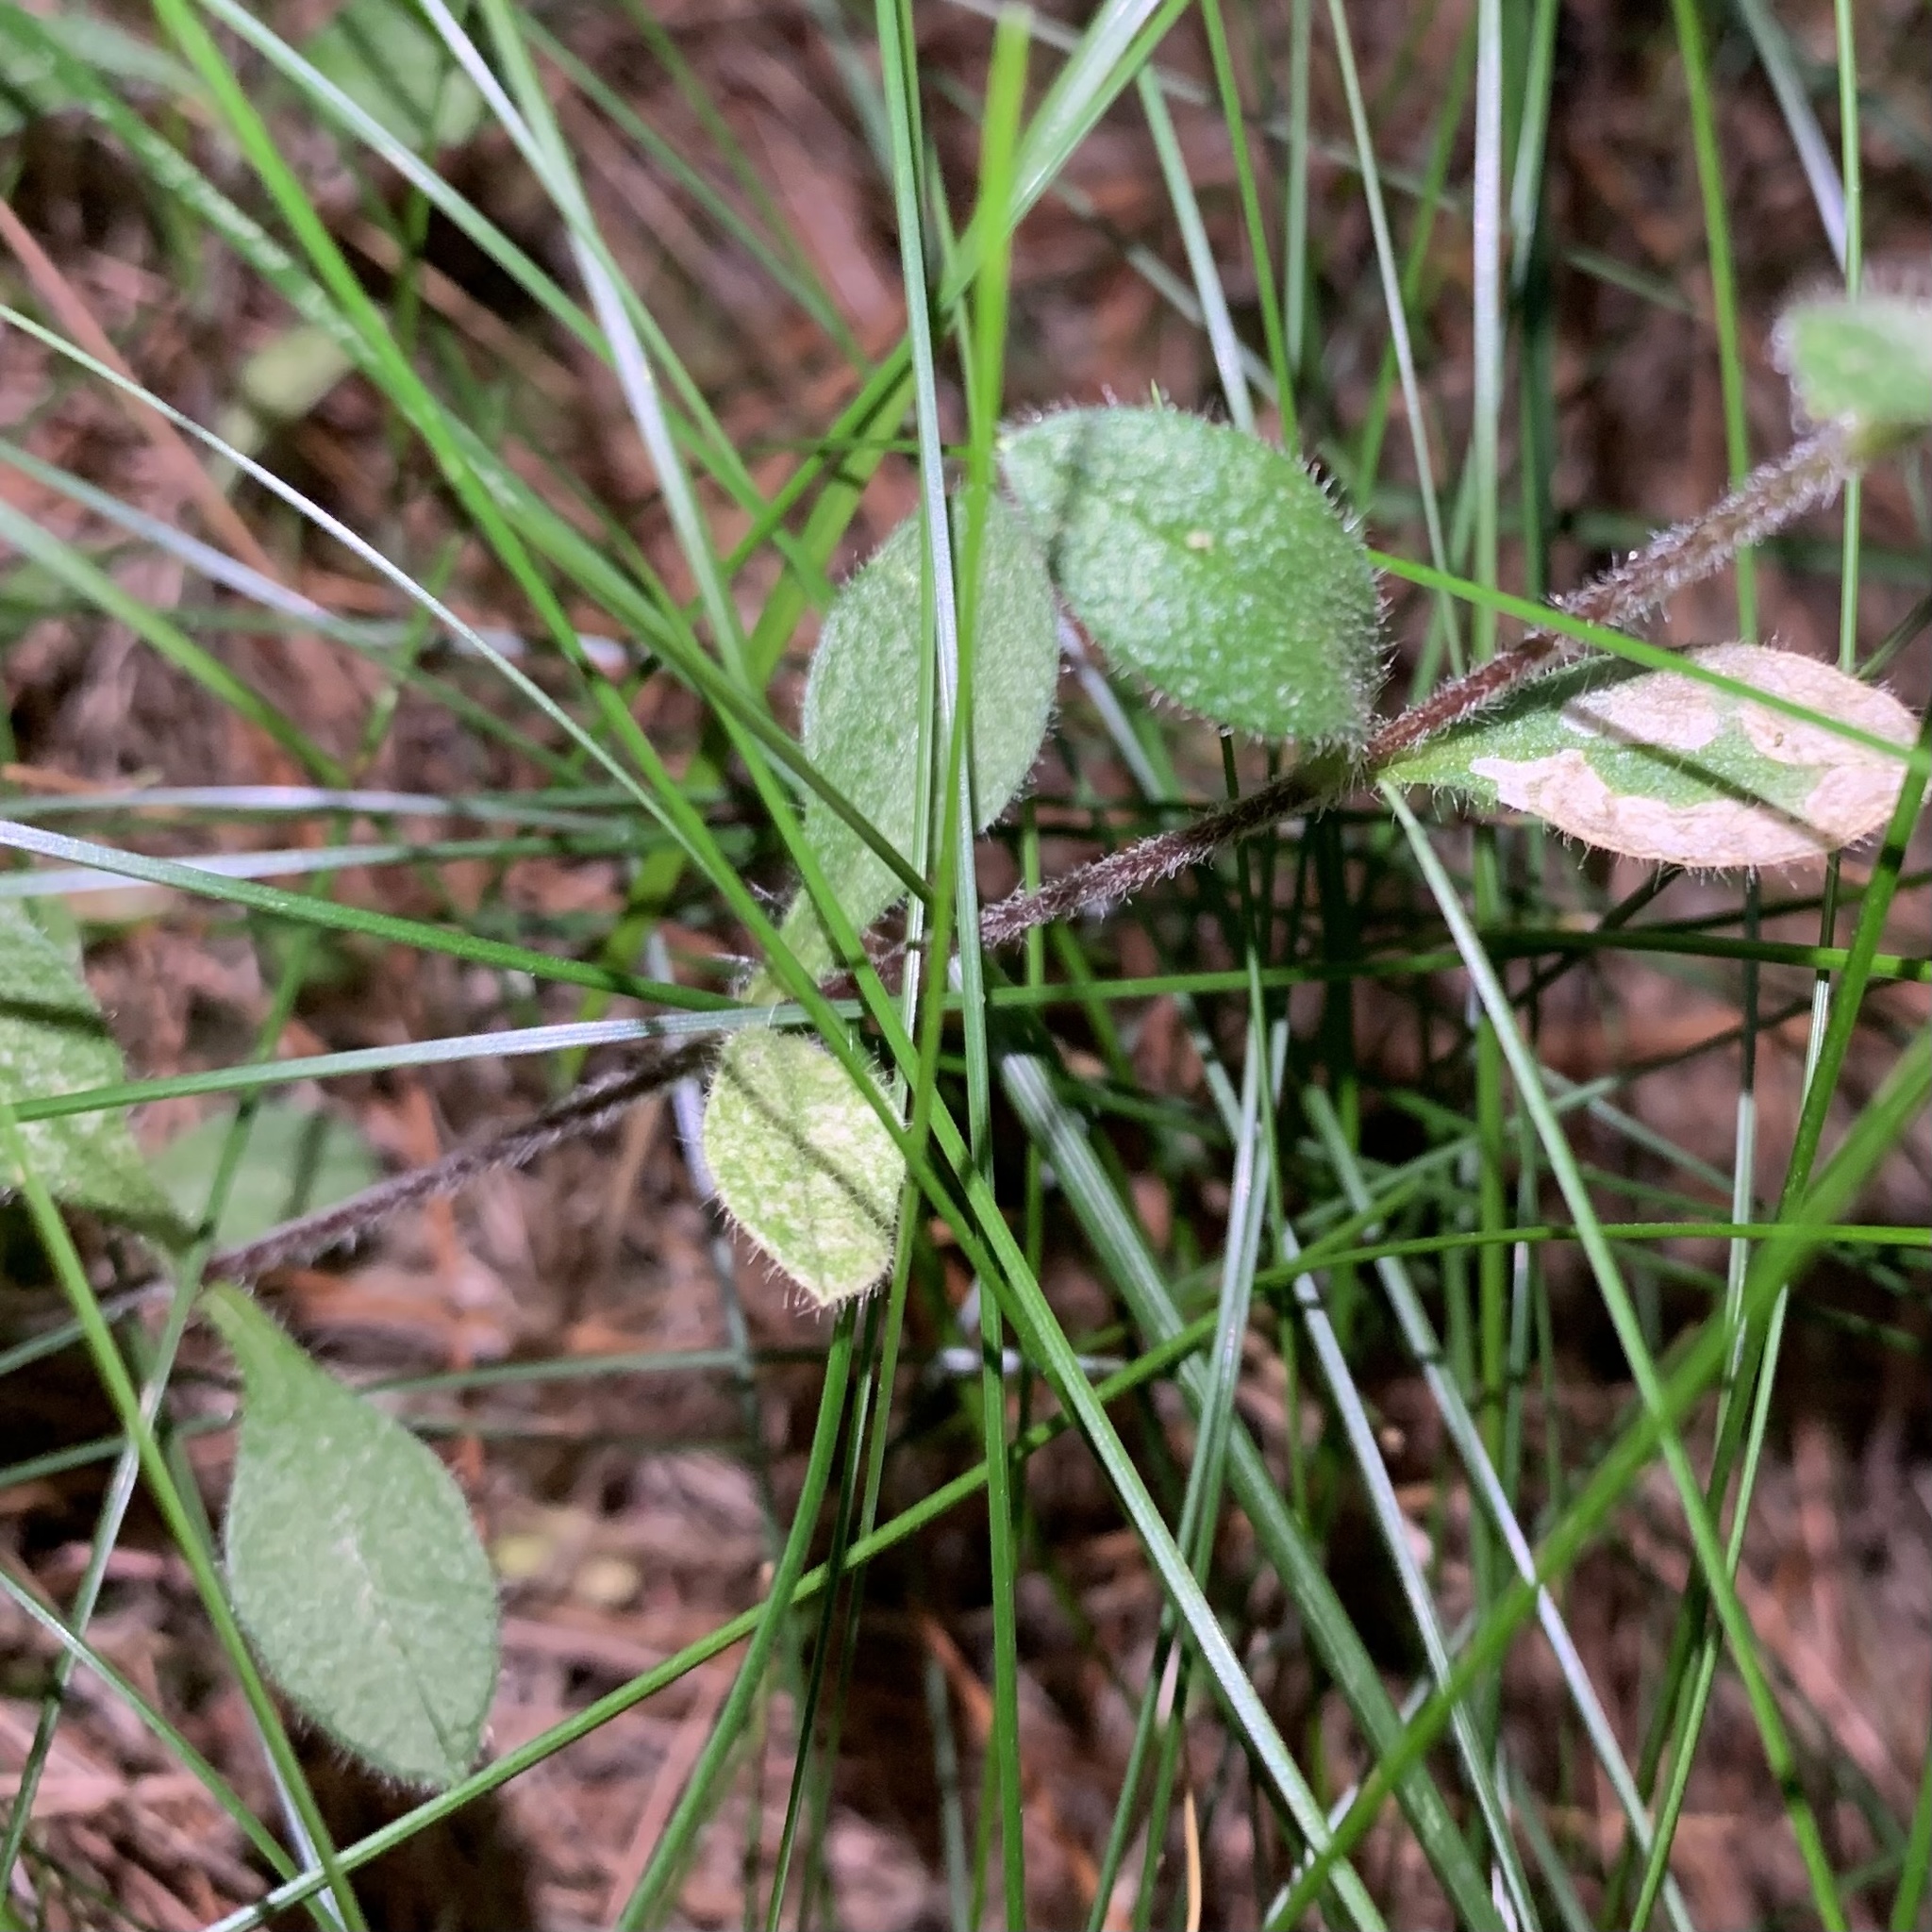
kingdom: Animalia
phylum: Arthropoda
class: Insecta
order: Diptera
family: Anthomyiidae
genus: Pegomya
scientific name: Pegomya flavifrons
